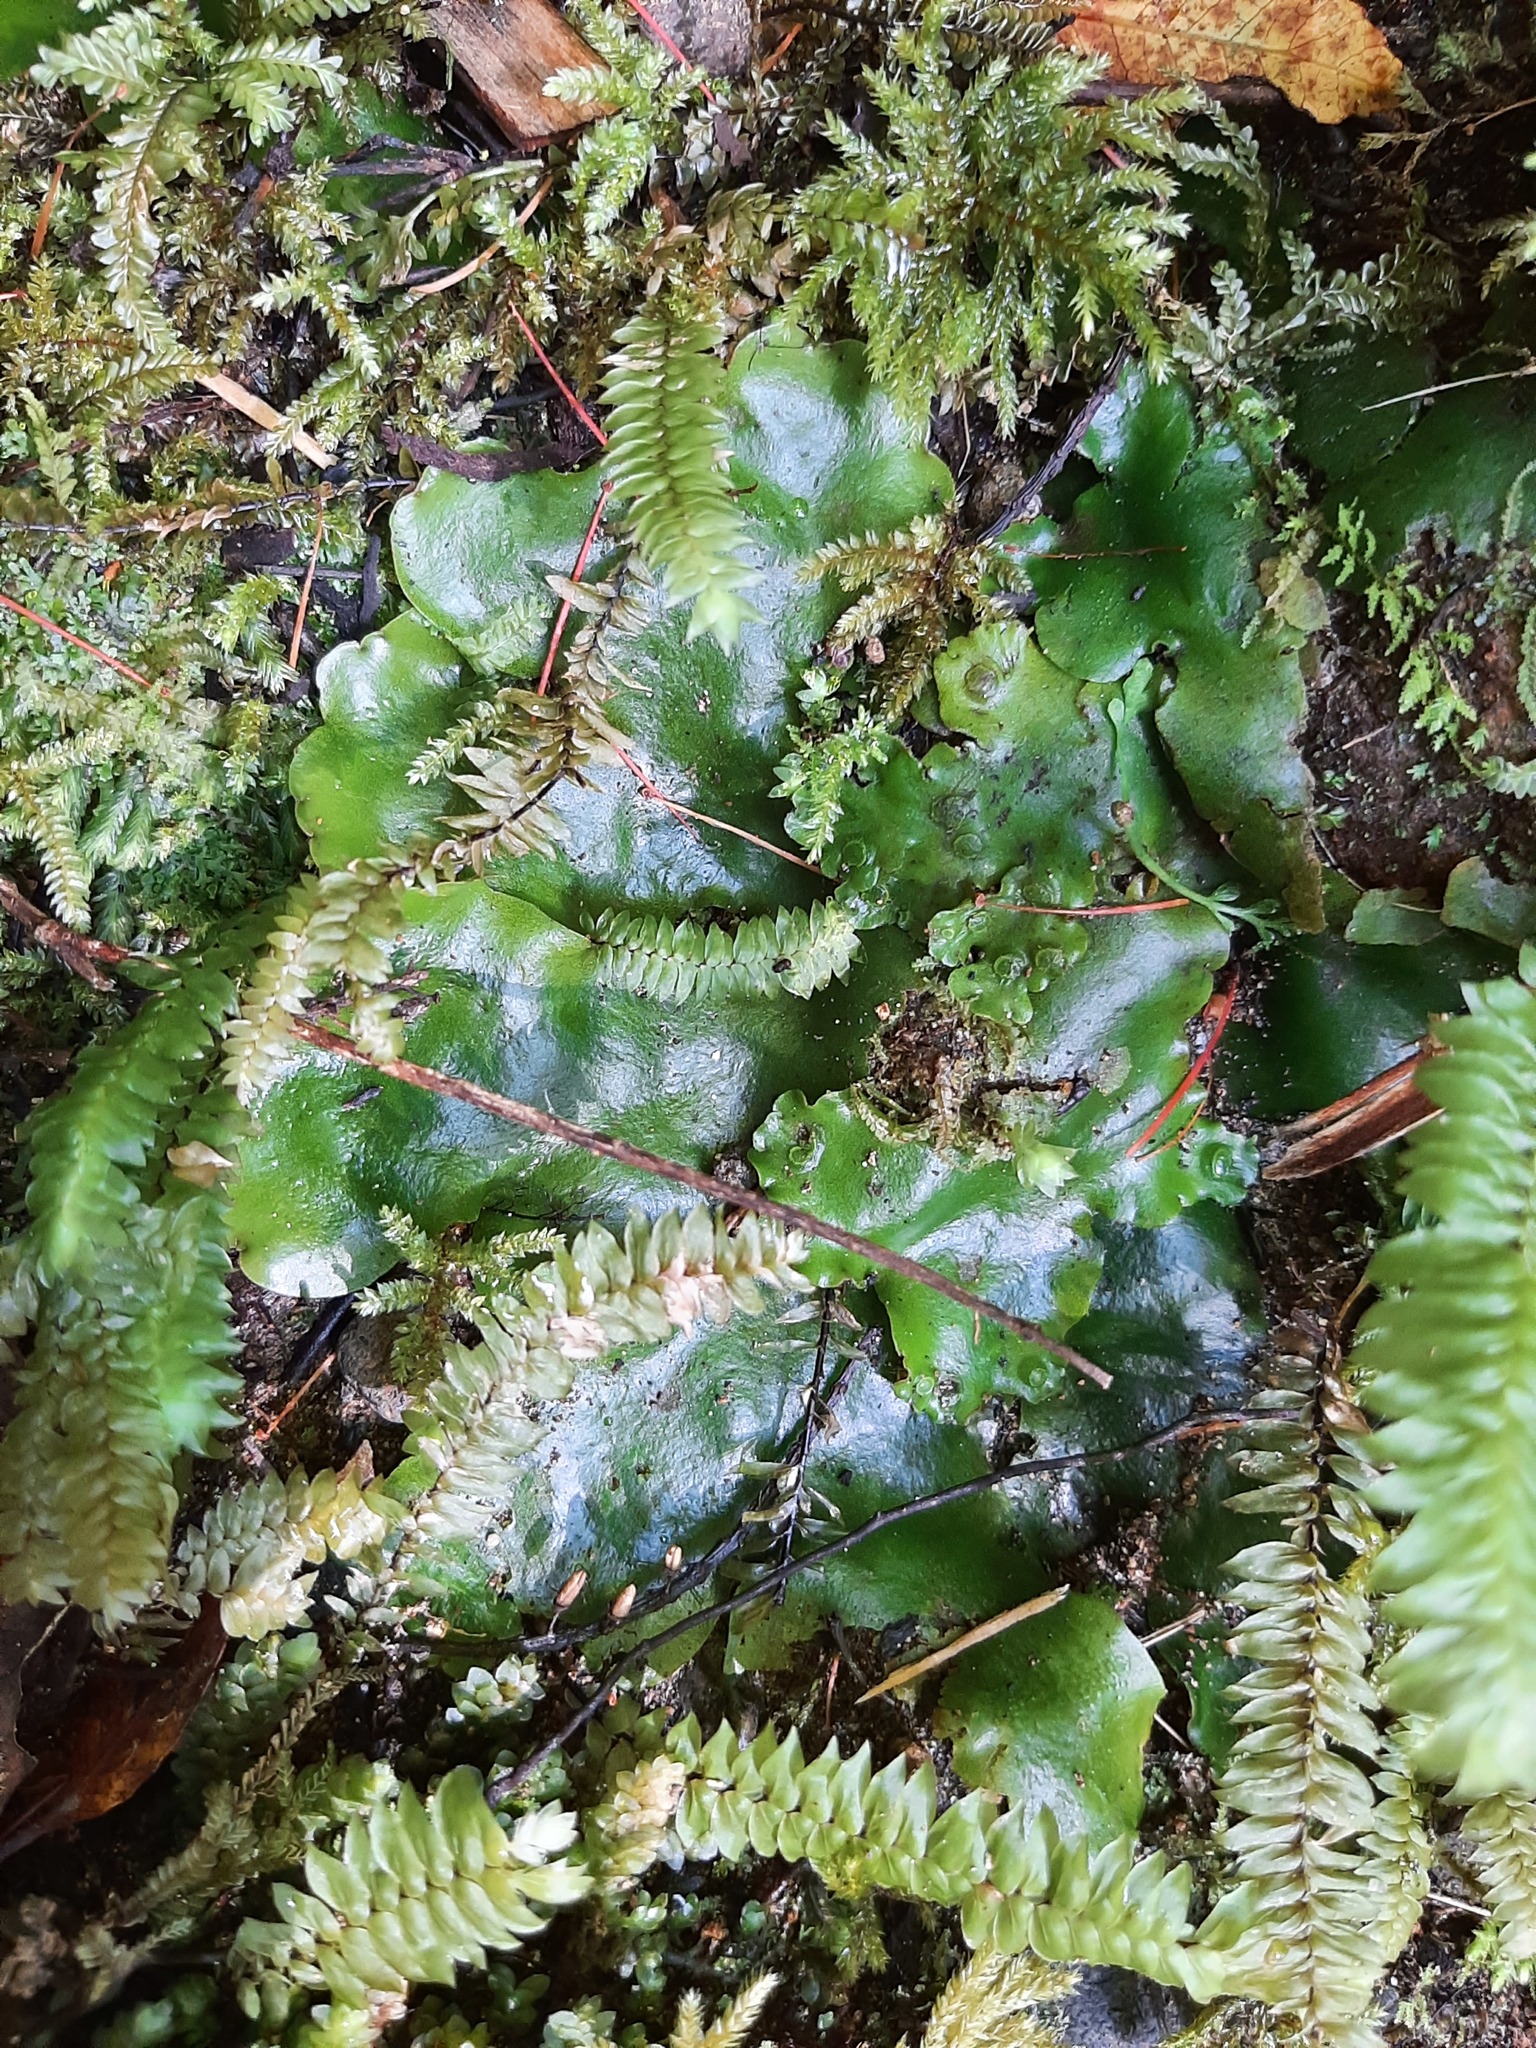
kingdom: Plantae
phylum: Marchantiophyta
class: Marchantiopsida
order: Marchantiales
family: Monocleaceae
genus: Monoclea
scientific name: Monoclea forsteri
